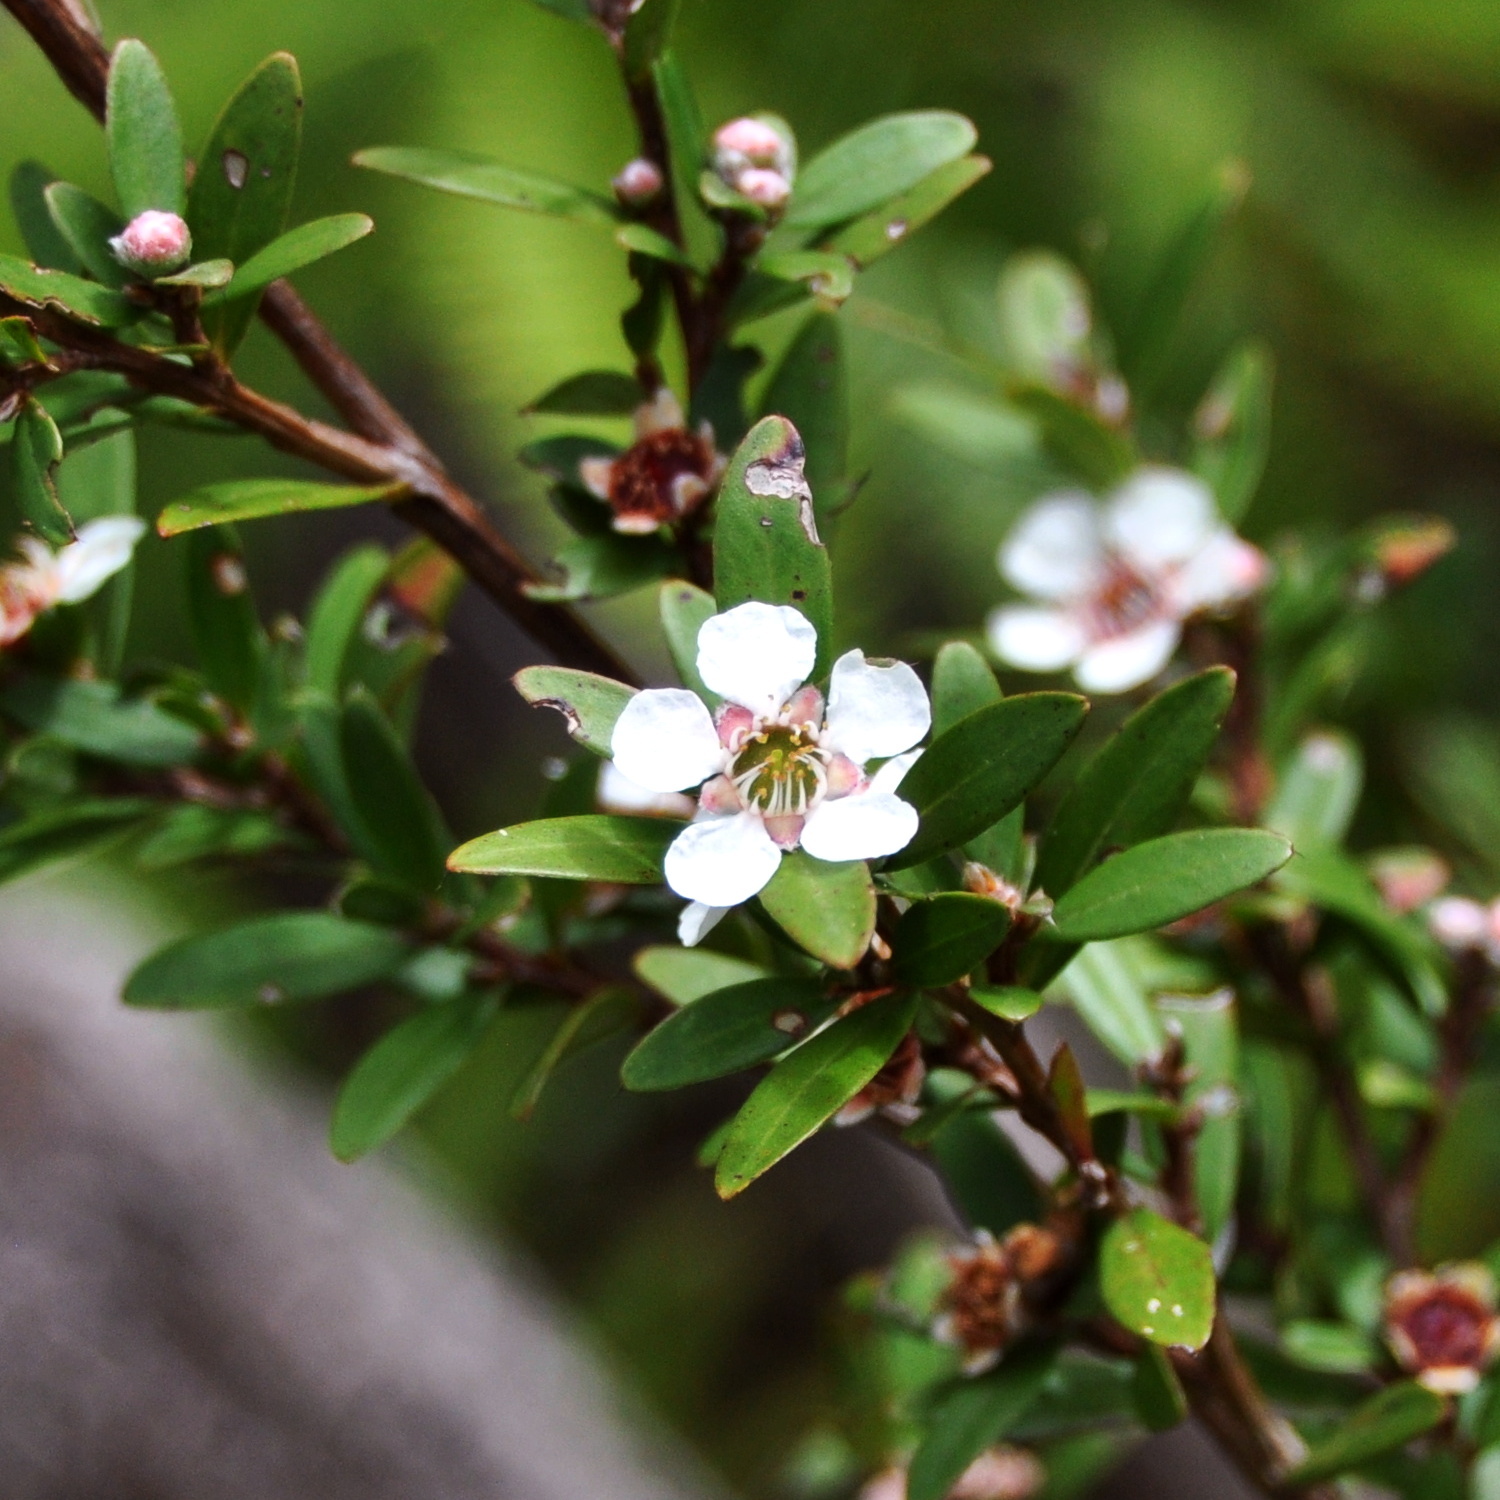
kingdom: Plantae
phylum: Tracheophyta
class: Magnoliopsida
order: Myrtales
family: Myrtaceae
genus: Leptospermum
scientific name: Leptospermum javanicum
